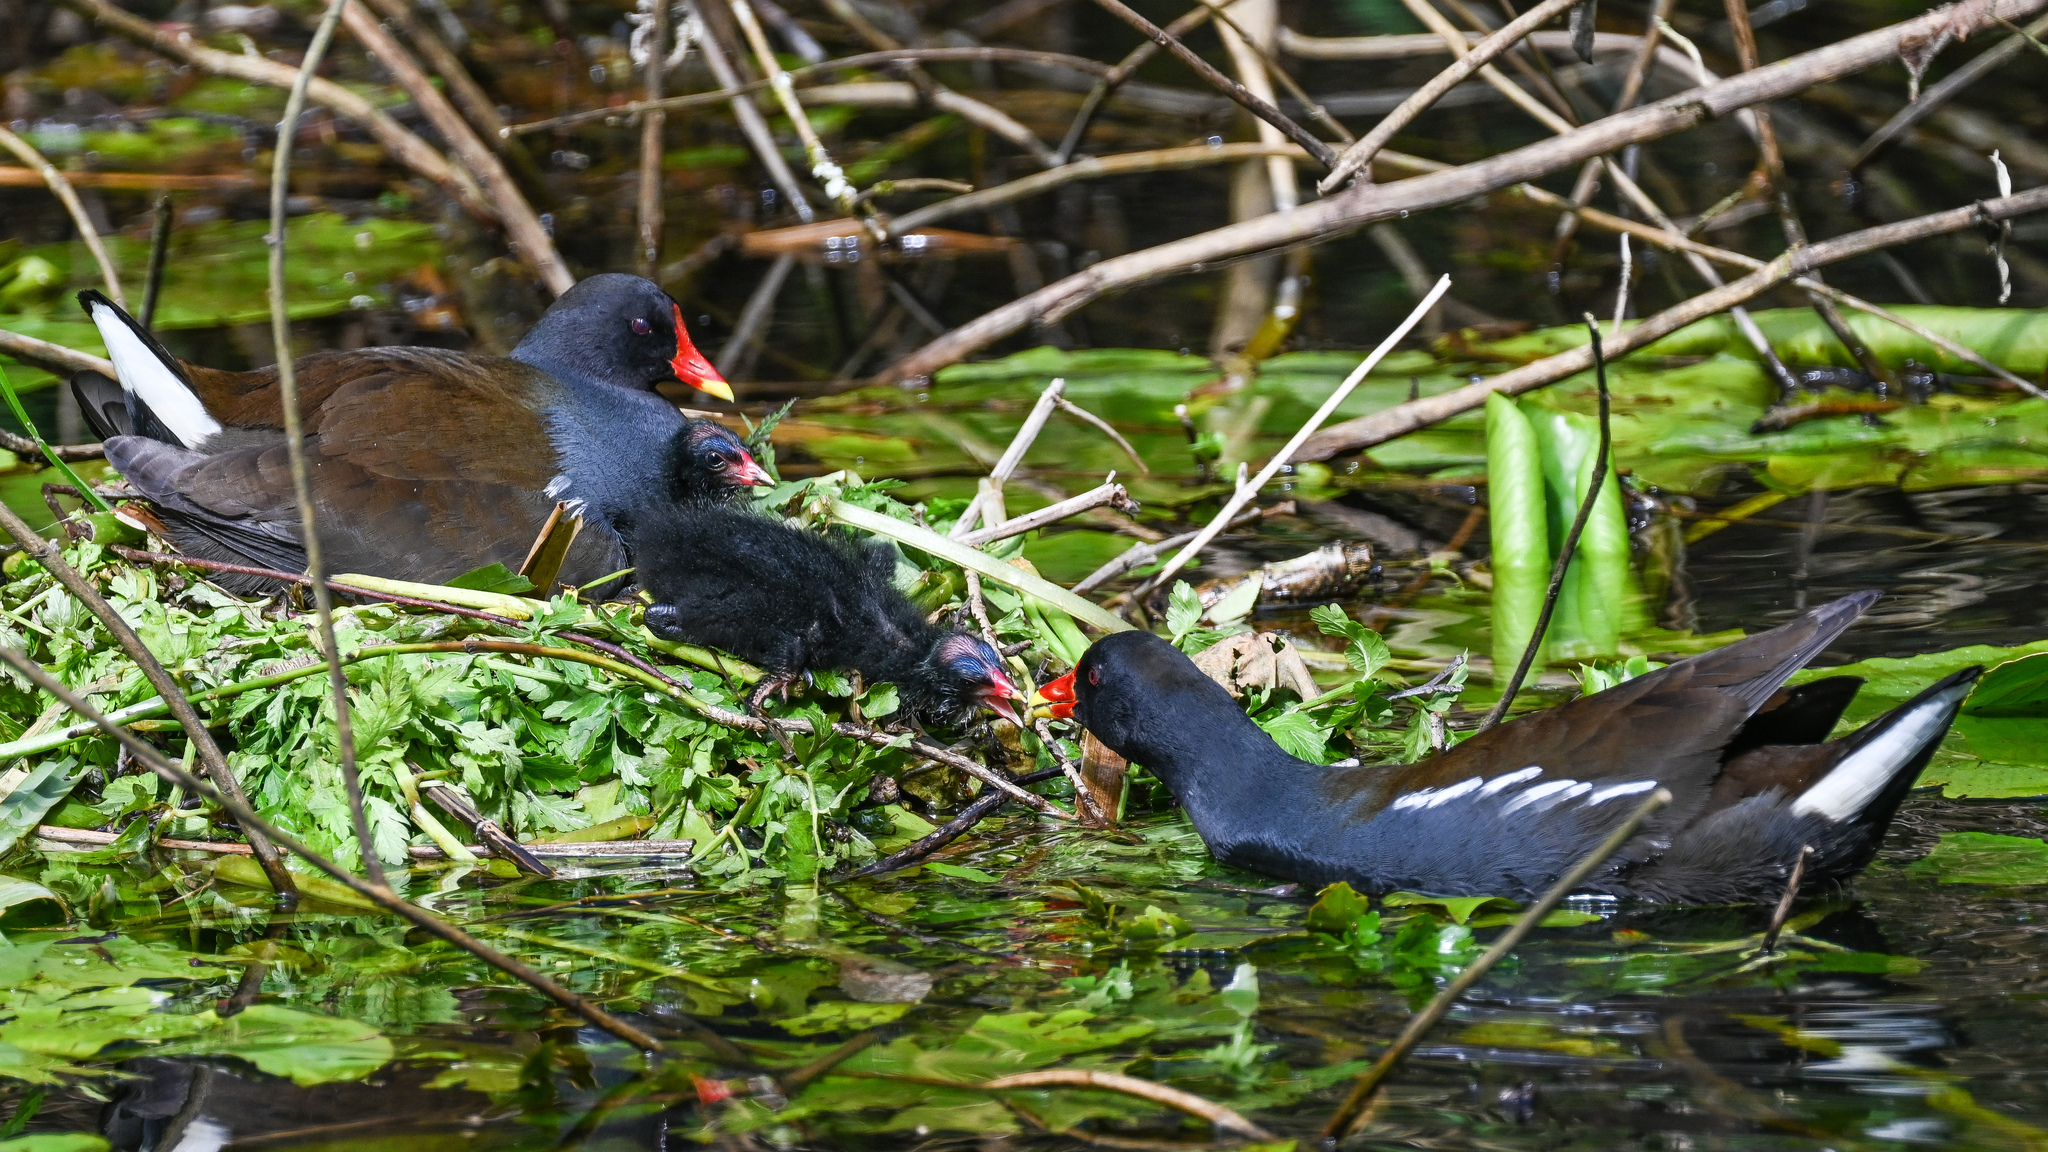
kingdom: Animalia
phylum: Chordata
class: Aves
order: Gruiformes
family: Rallidae
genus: Gallinula
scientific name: Gallinula chloropus
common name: Common moorhen
